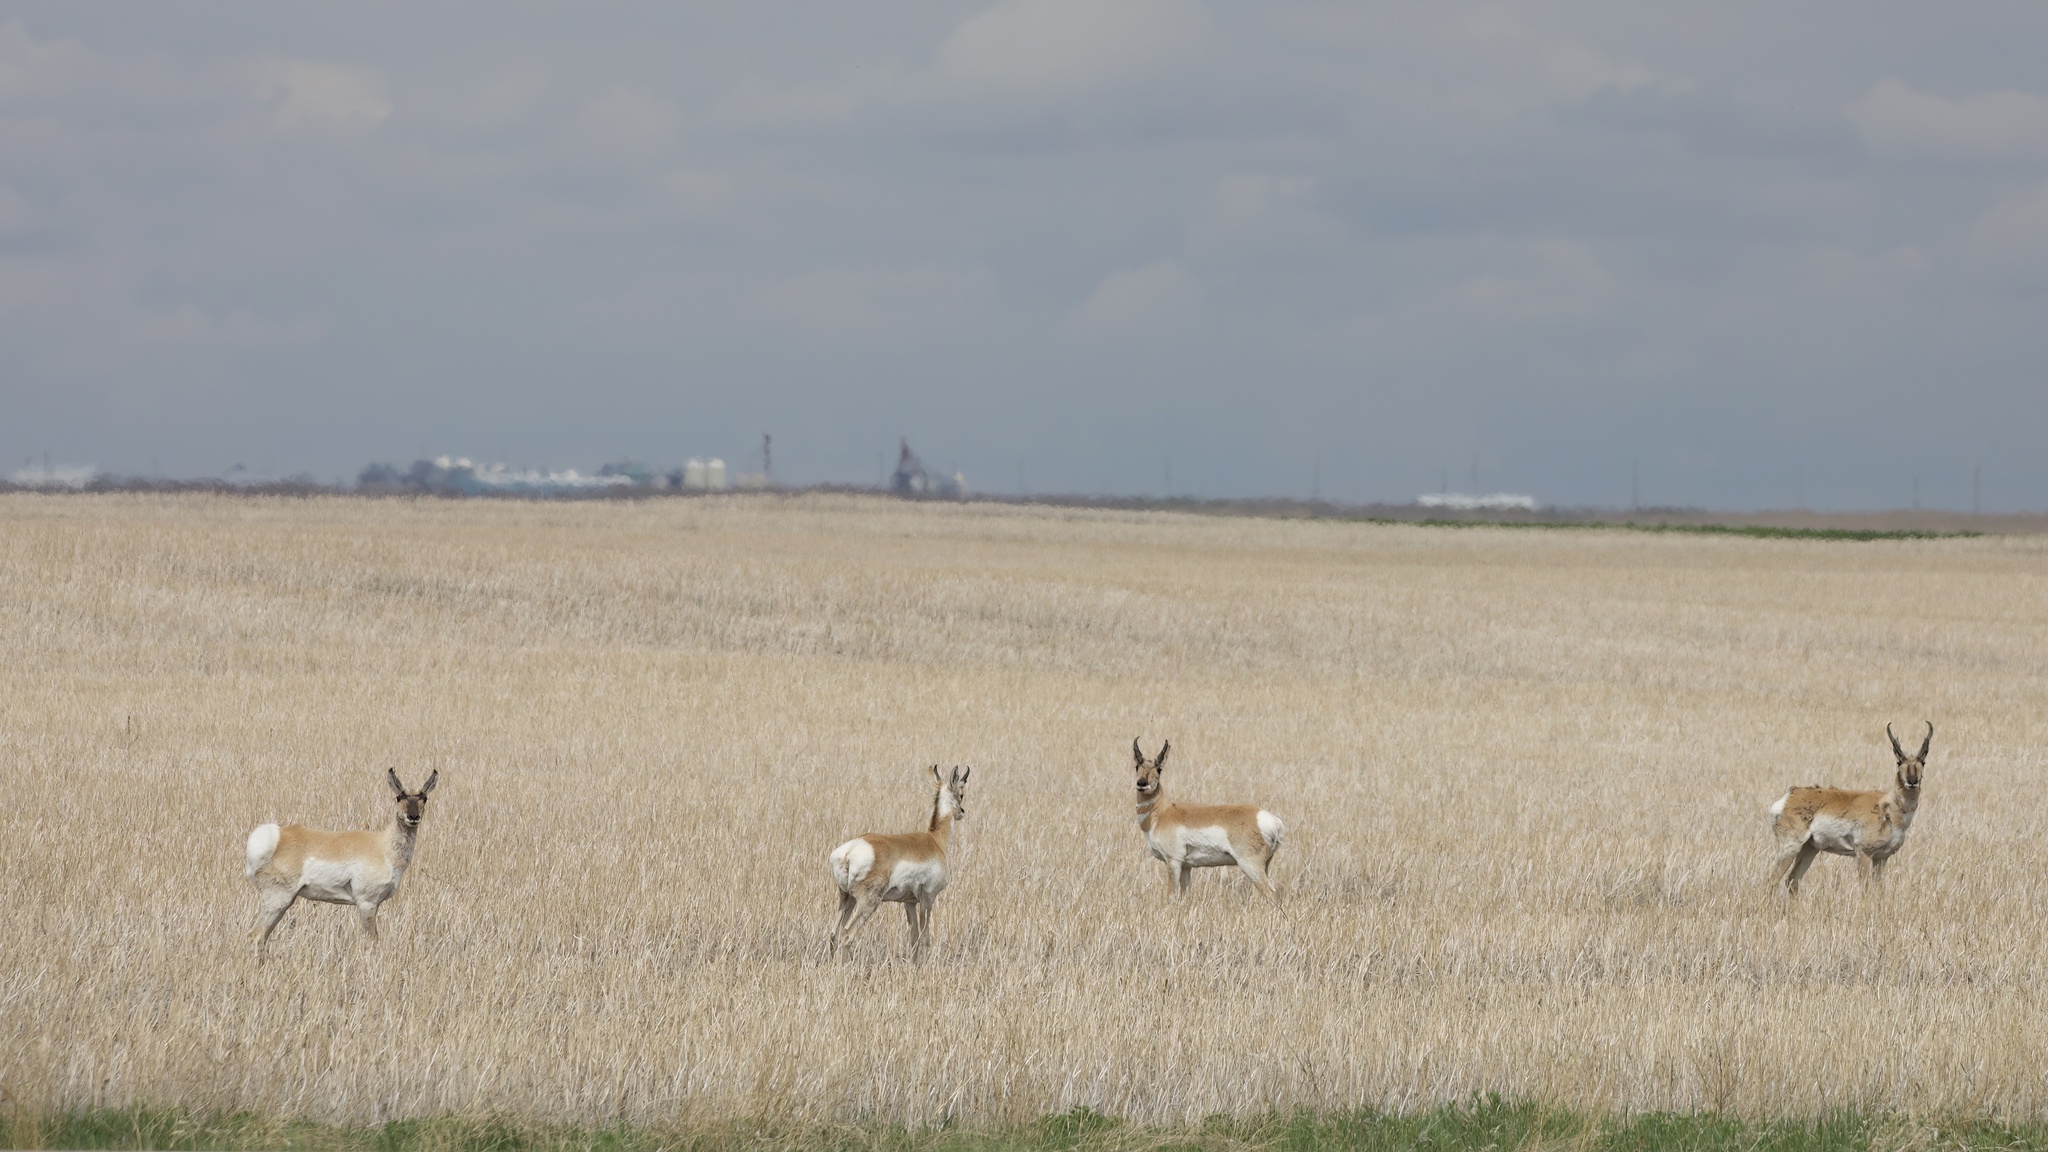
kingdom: Animalia
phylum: Chordata
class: Mammalia
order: Artiodactyla
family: Antilocapridae
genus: Antilocapra
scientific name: Antilocapra americana
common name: Pronghorn
